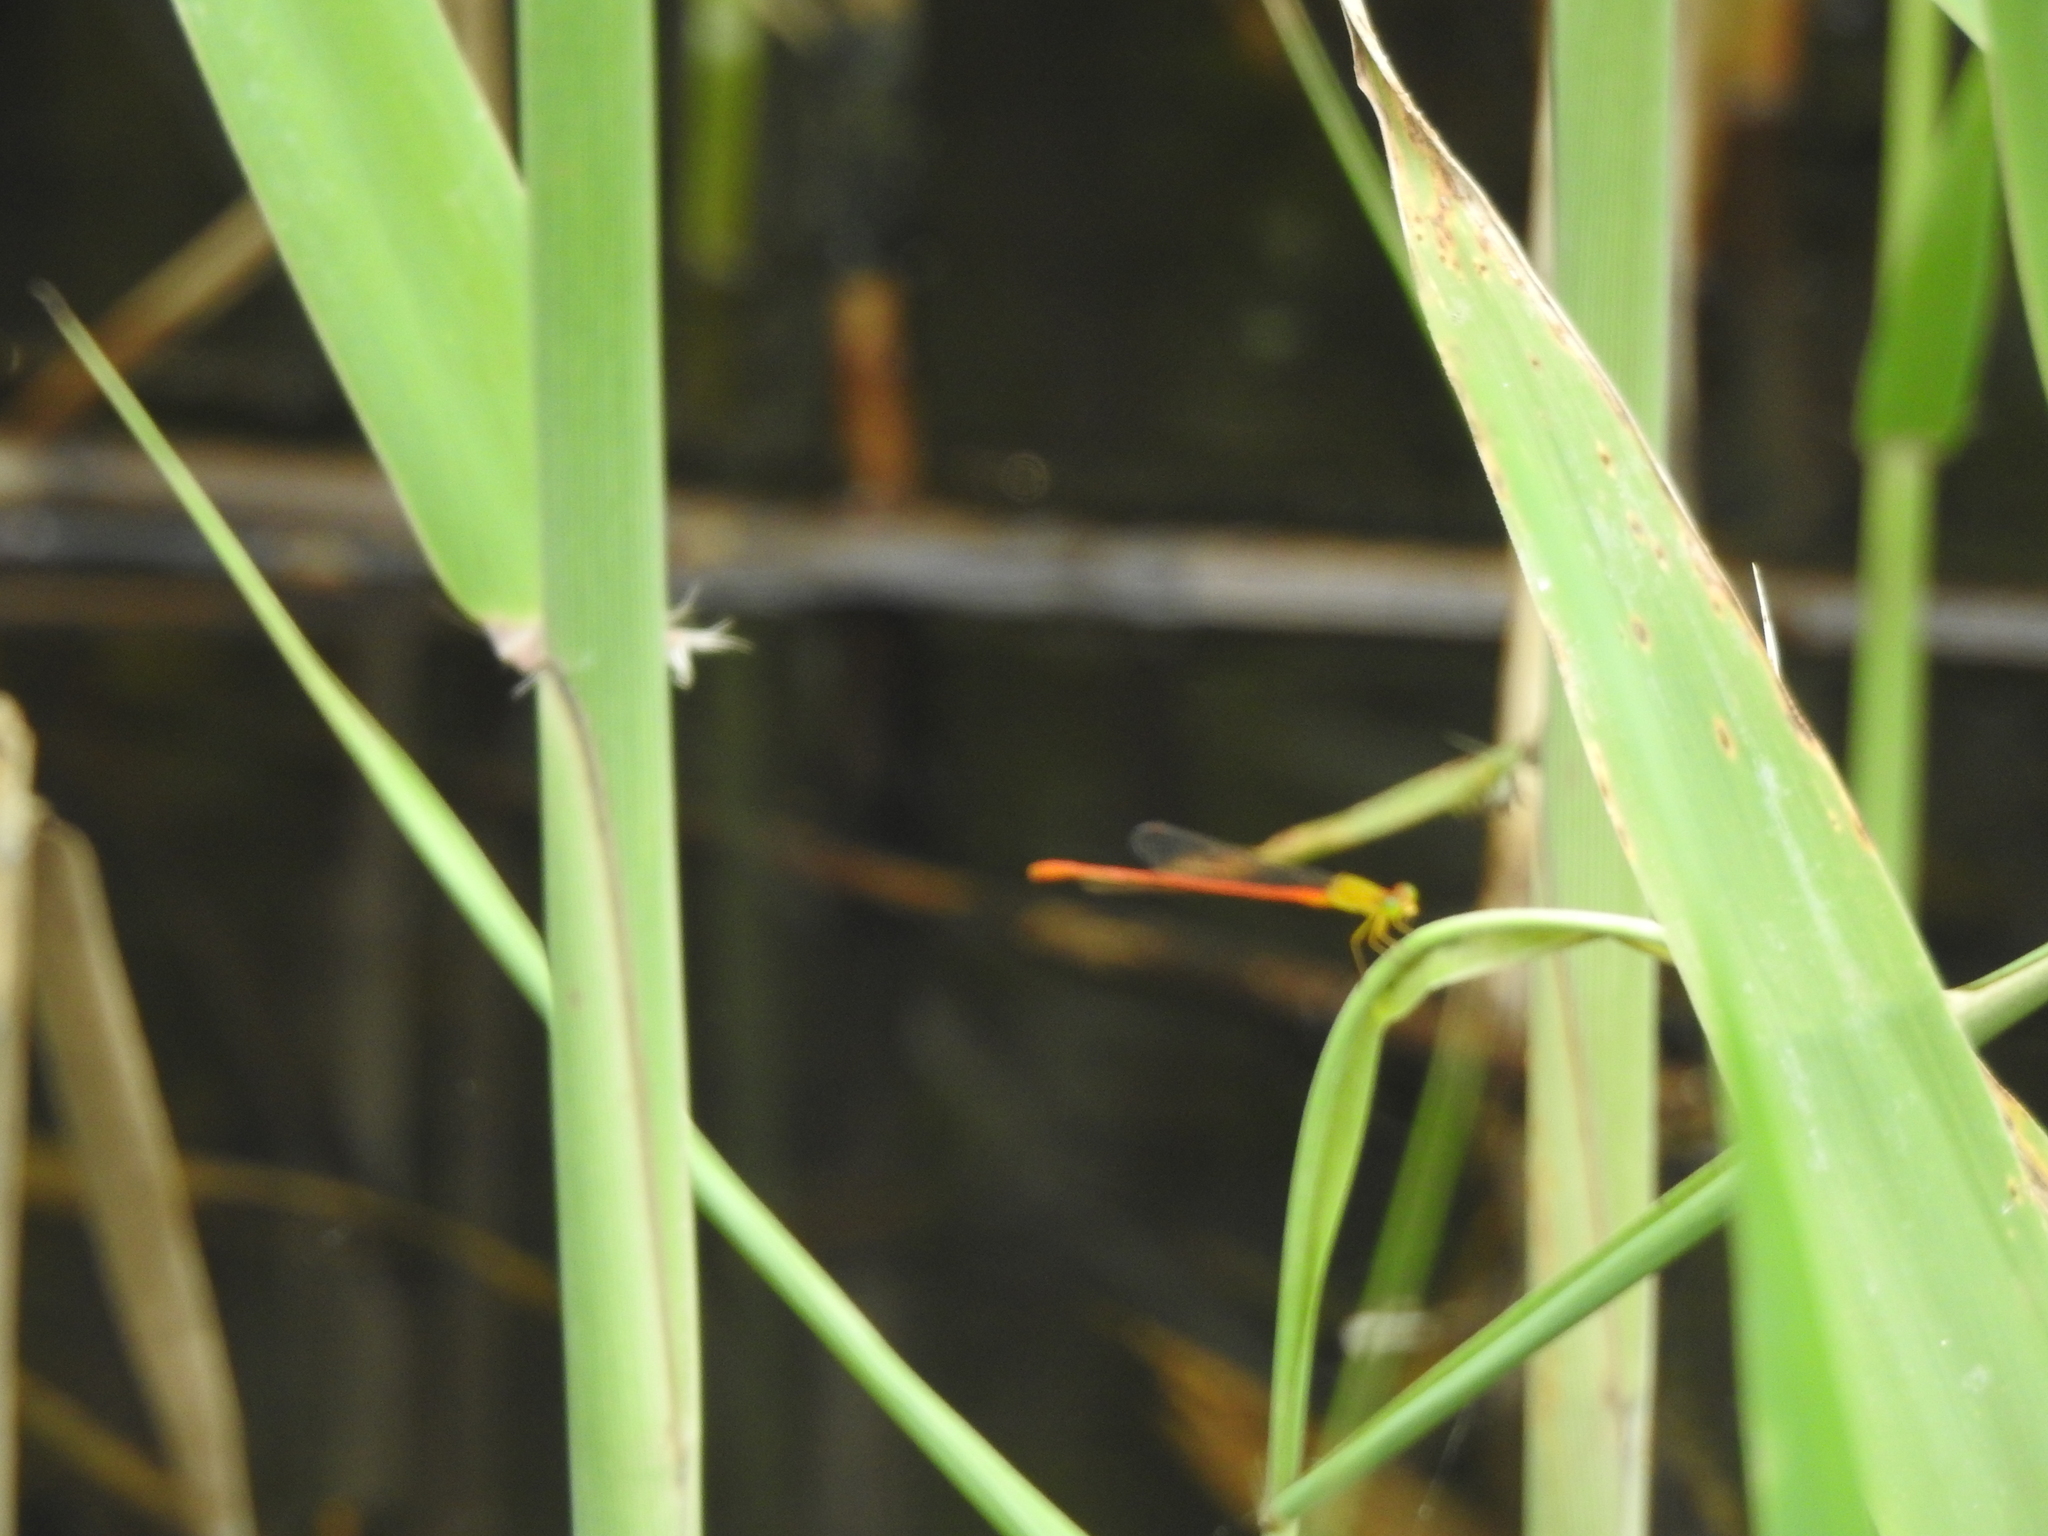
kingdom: Animalia
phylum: Arthropoda
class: Insecta
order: Odonata
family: Coenagrionidae
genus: Ceriagrion
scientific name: Ceriagrion auranticum
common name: Orange-tailed sprite
